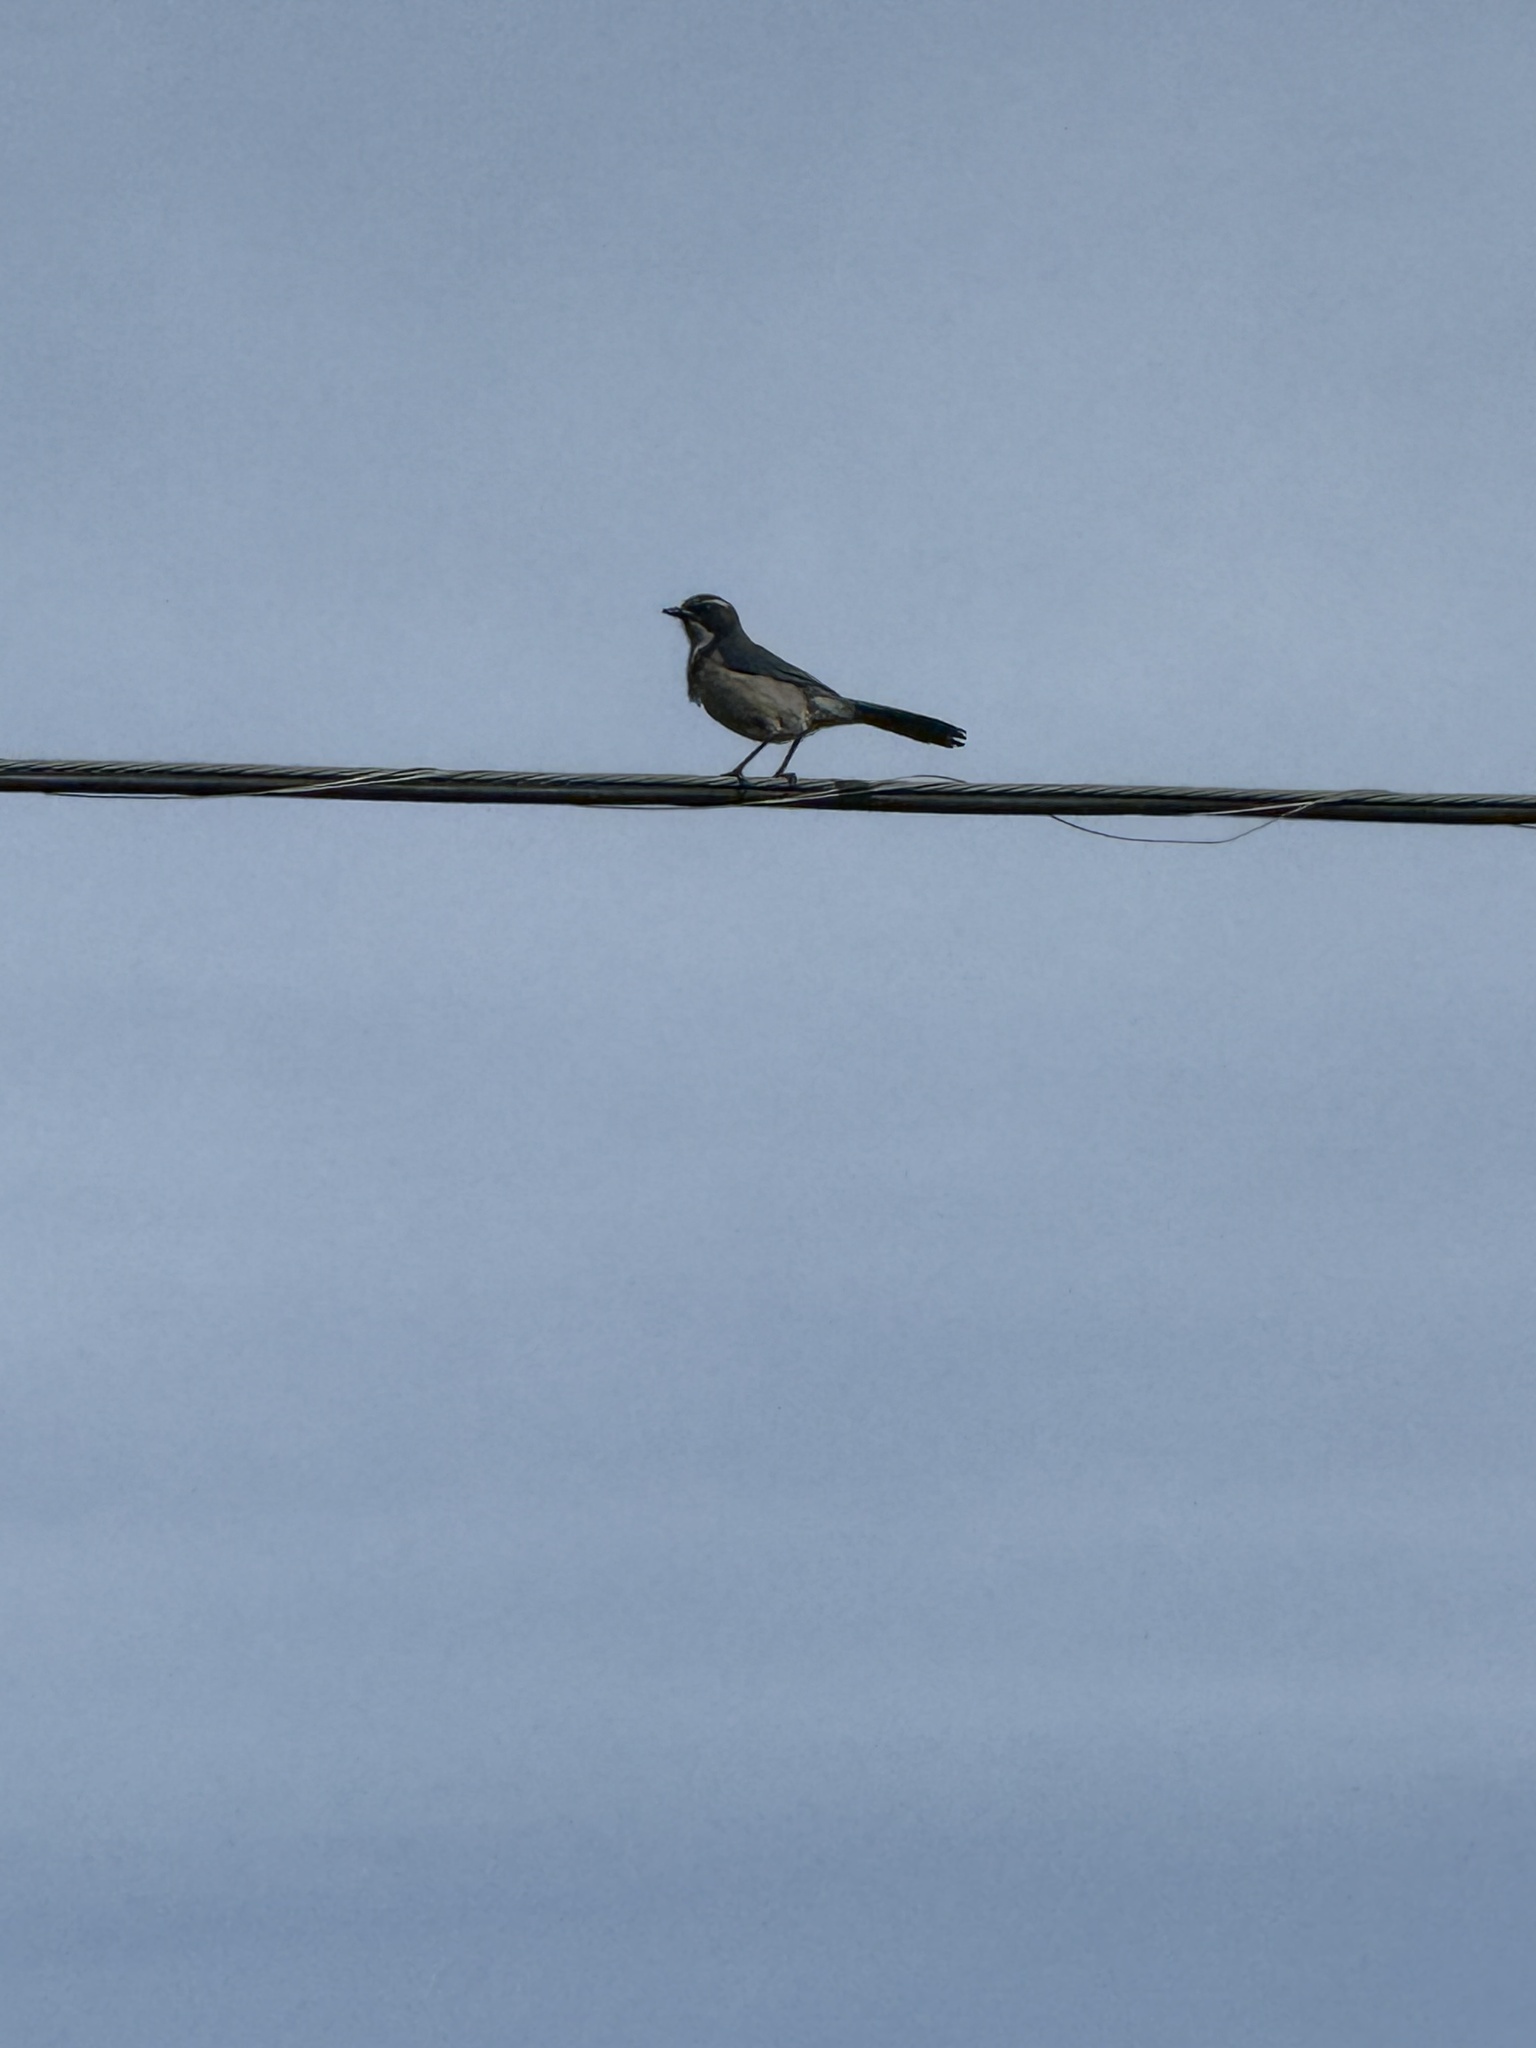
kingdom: Animalia
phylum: Chordata
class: Aves
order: Passeriformes
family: Corvidae
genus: Aphelocoma
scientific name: Aphelocoma californica
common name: California scrub-jay
